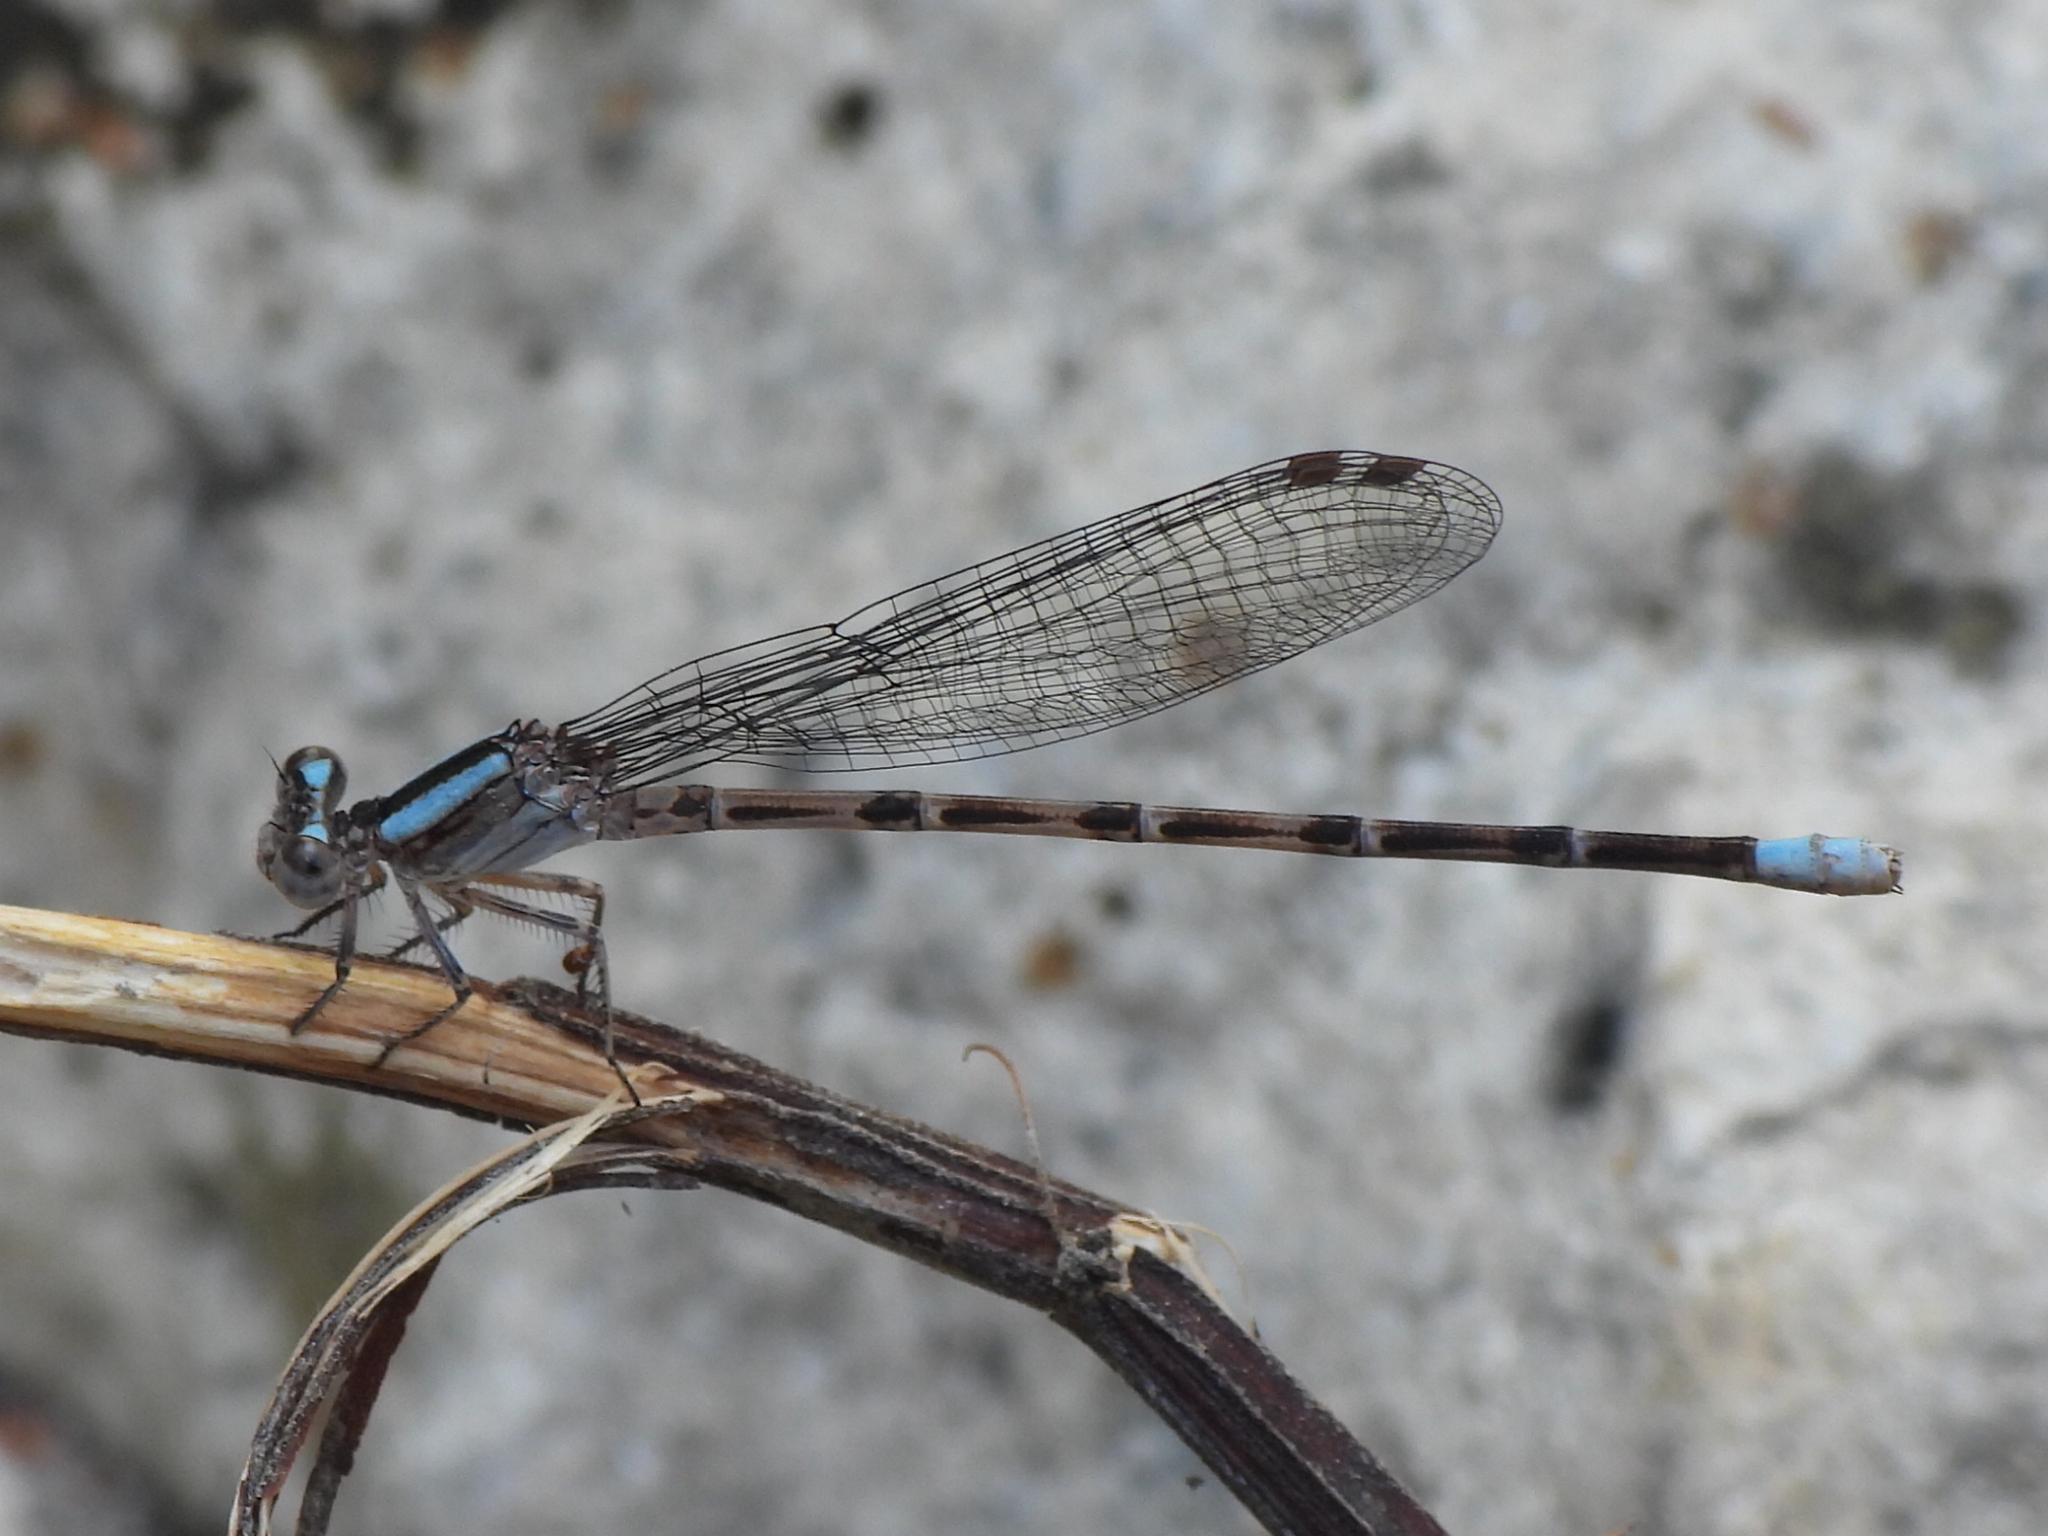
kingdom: Animalia
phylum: Arthropoda
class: Insecta
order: Odonata
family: Coenagrionidae
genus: Argia
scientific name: Argia immunda
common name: Kiowa dancer
